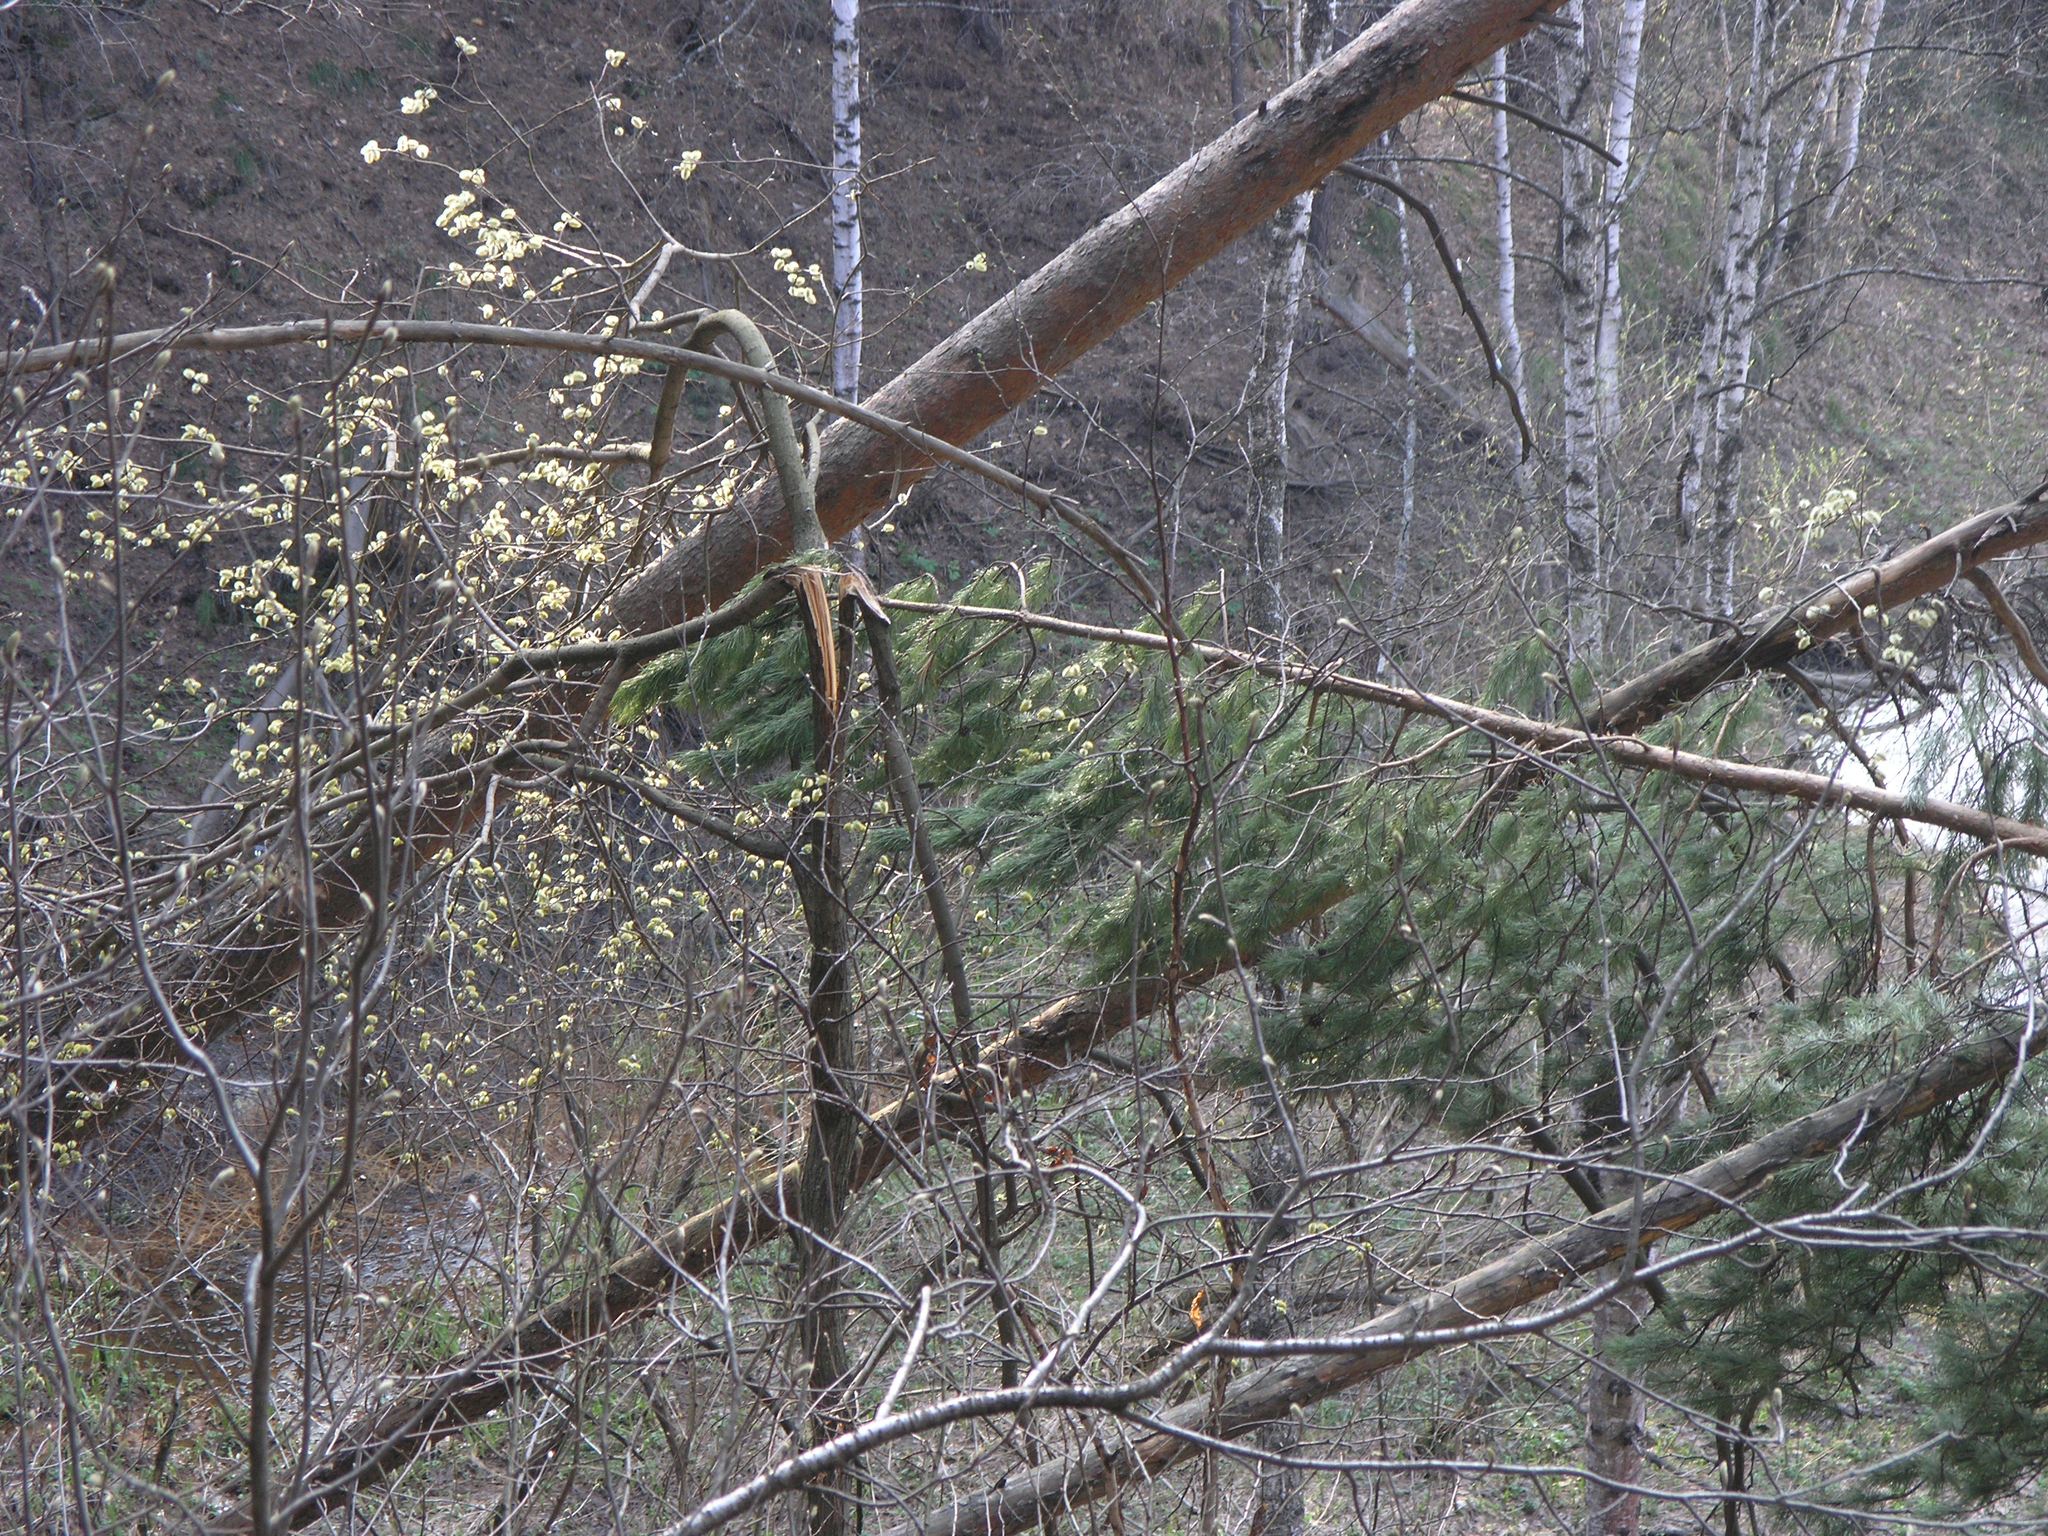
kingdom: Plantae
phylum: Tracheophyta
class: Magnoliopsida
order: Malpighiales
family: Salicaceae
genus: Salix
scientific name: Salix caprea
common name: Goat willow
